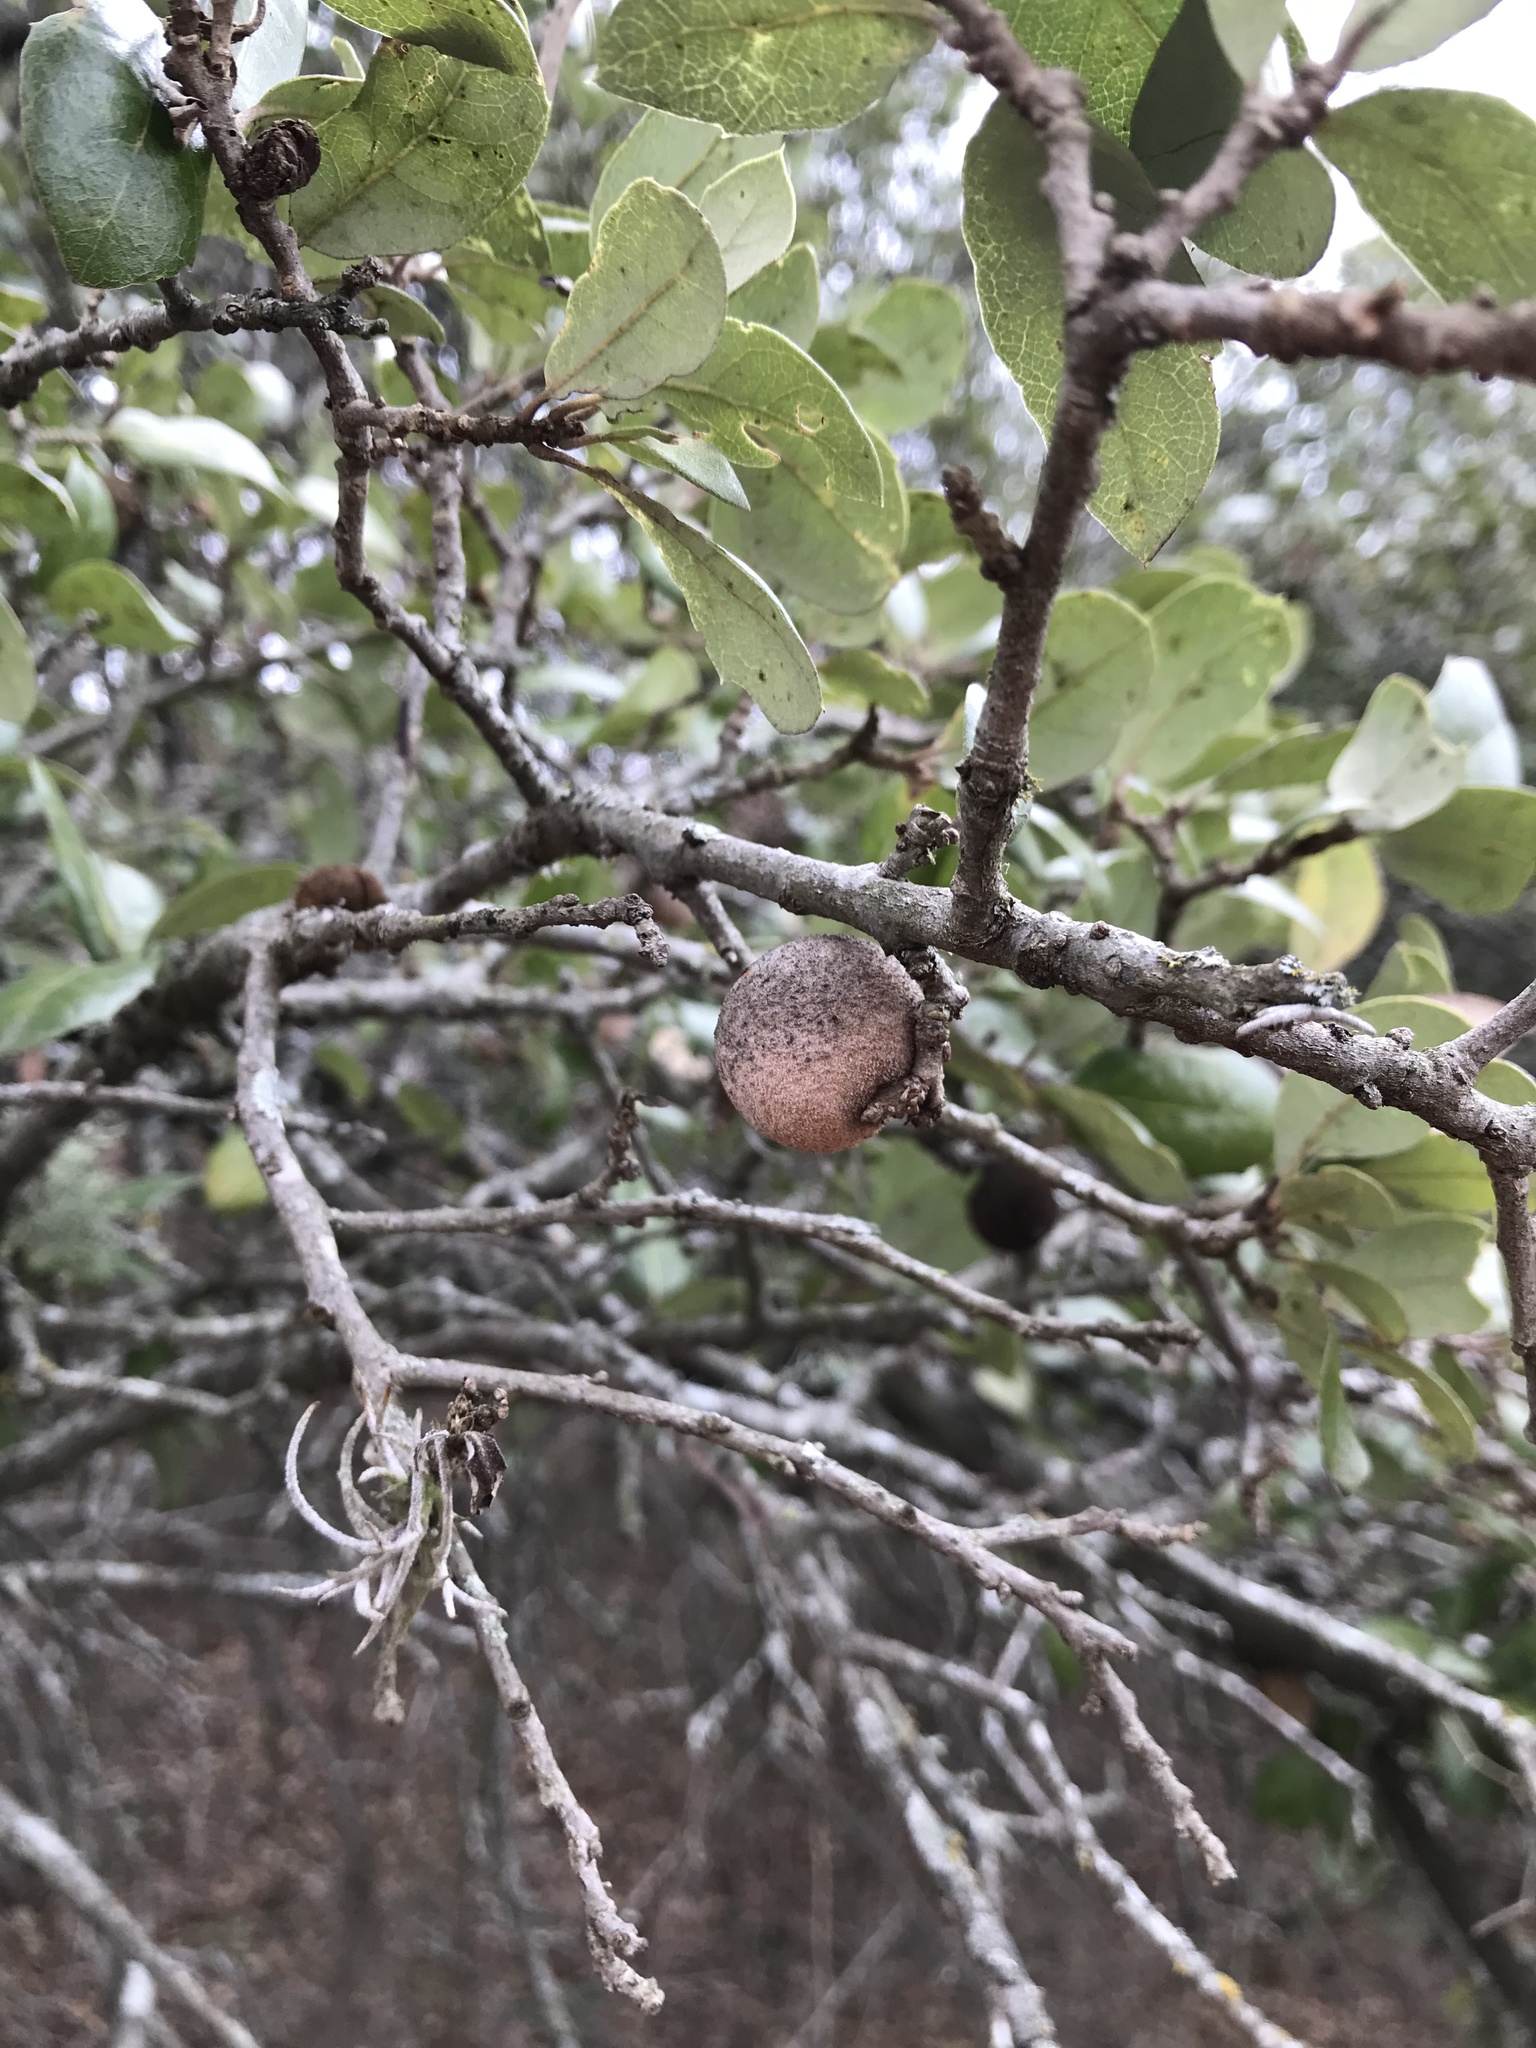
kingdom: Animalia
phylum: Arthropoda
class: Insecta
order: Hymenoptera
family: Cynipidae
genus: Disholcaspis
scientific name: Disholcaspis
